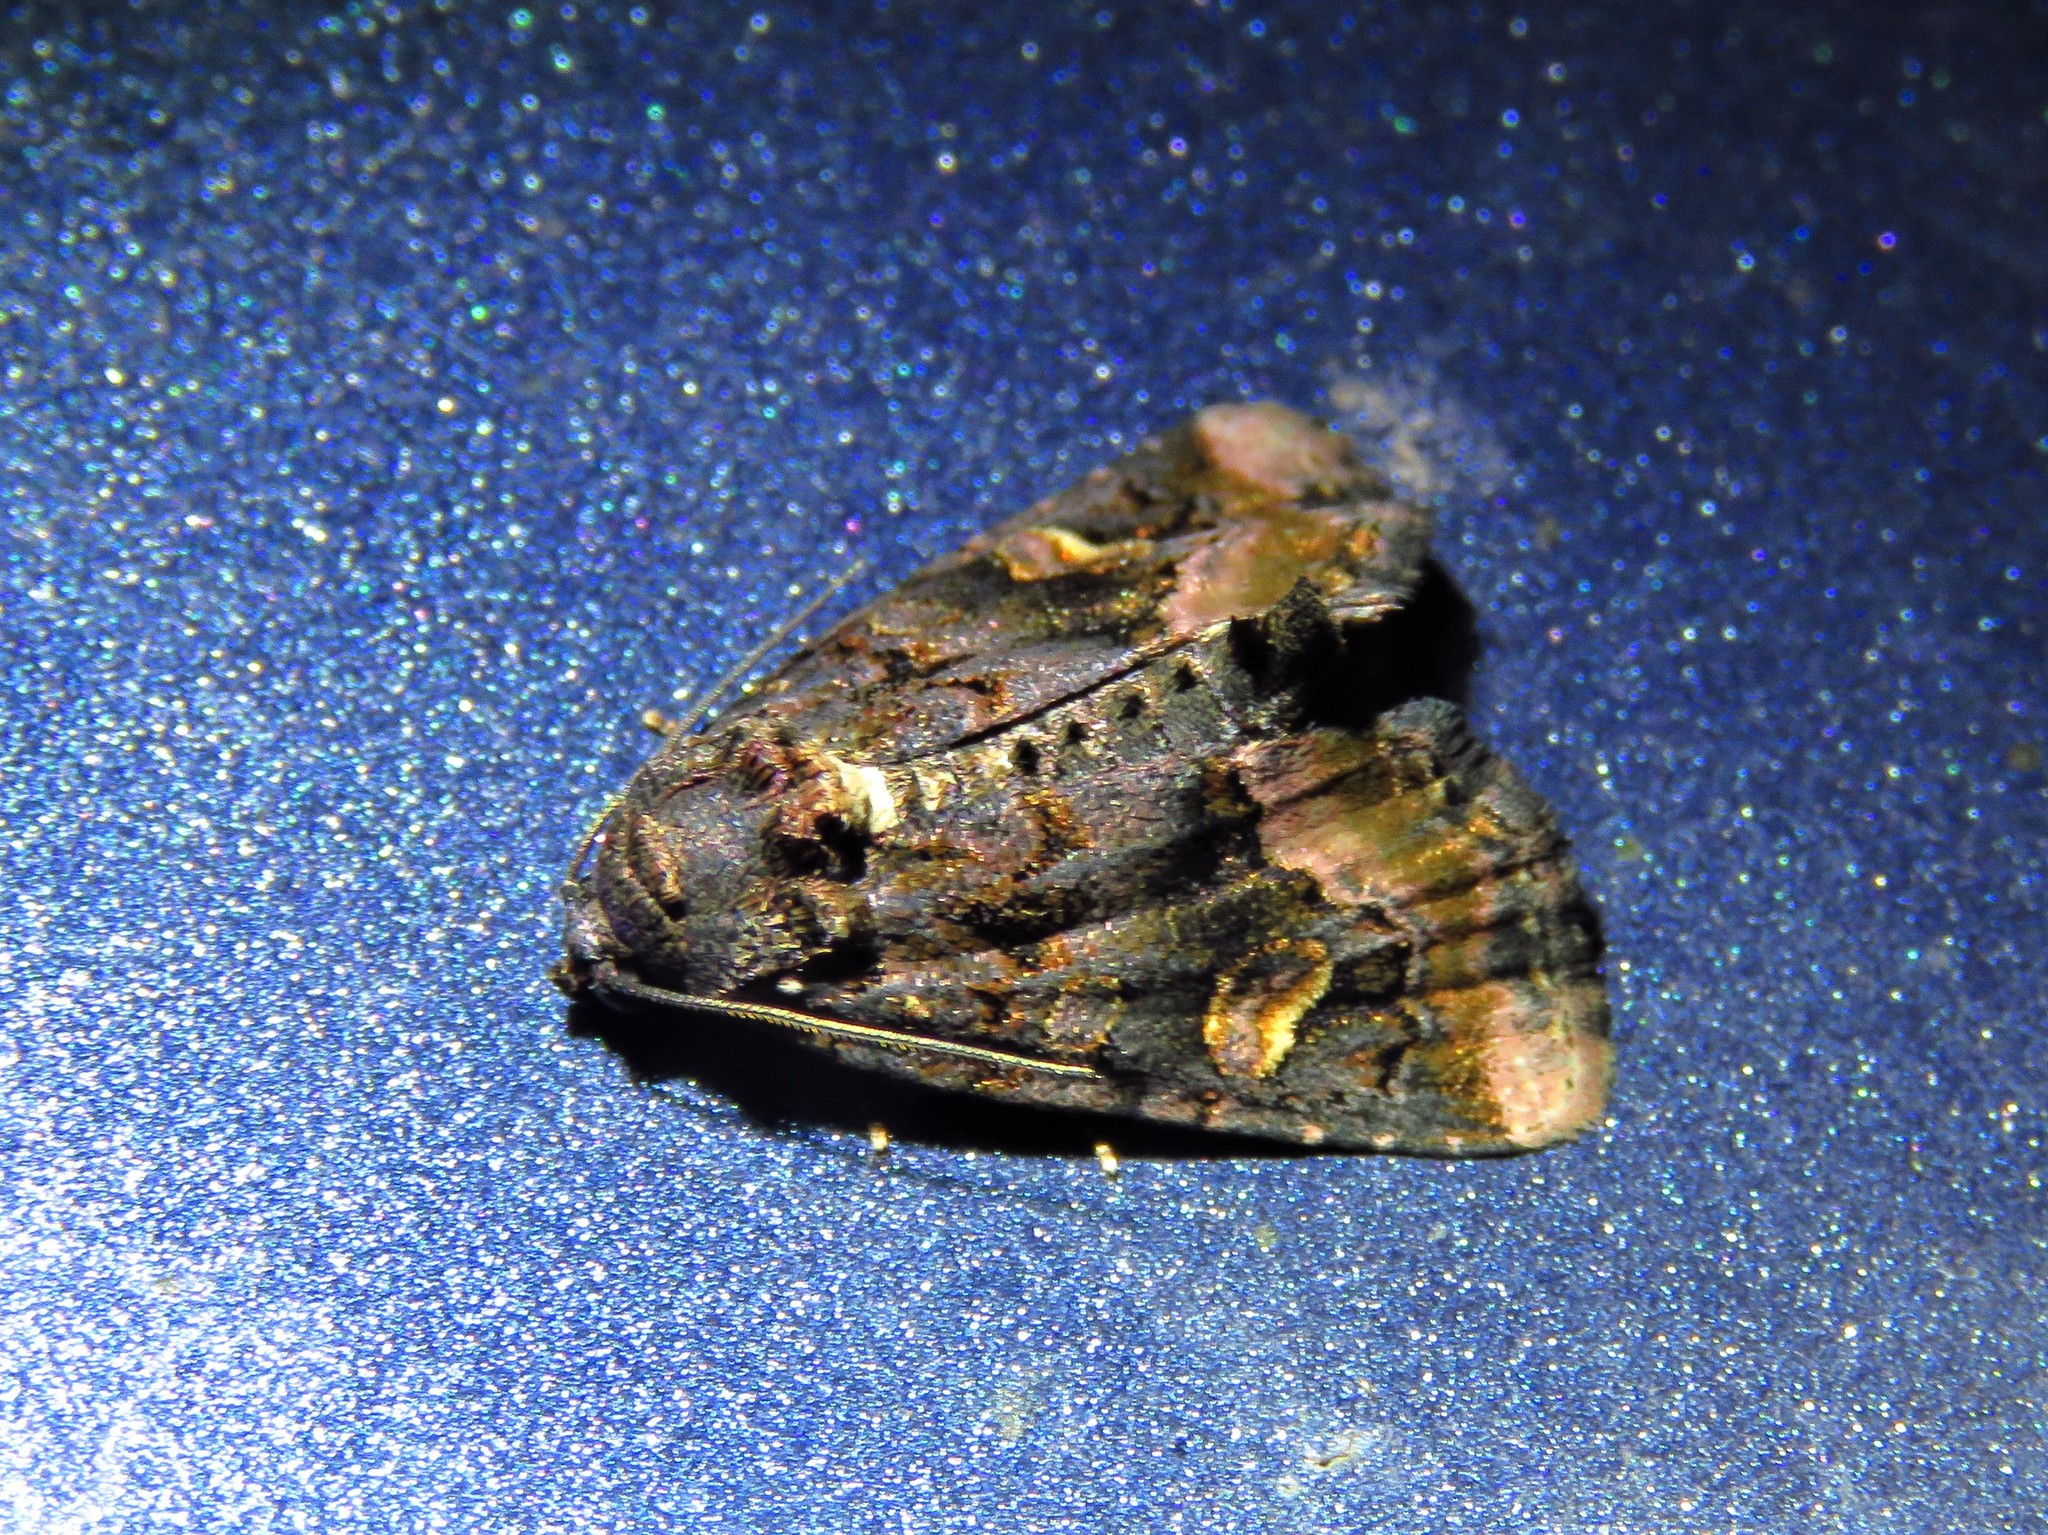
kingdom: Animalia
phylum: Arthropoda
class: Insecta
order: Lepidoptera
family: Noctuidae
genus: Homophoberia
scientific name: Homophoberia apicosa
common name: Black wedge-spot
